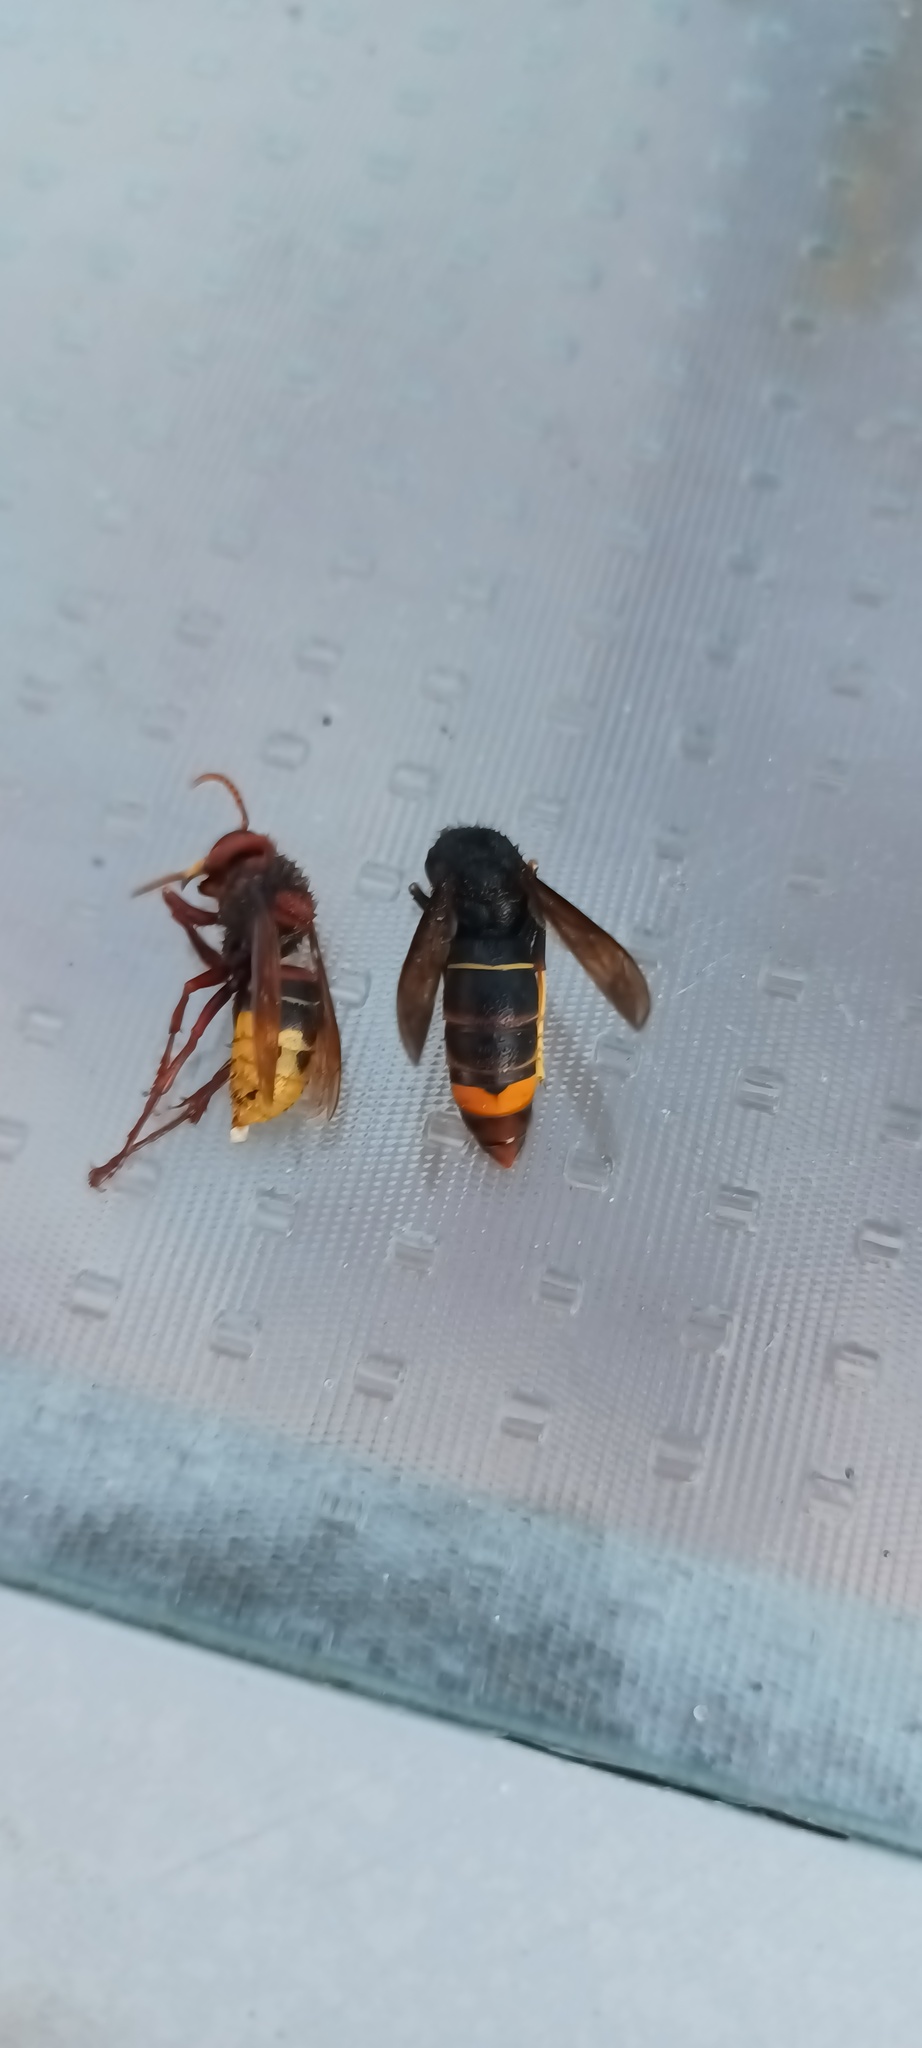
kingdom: Animalia
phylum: Arthropoda
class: Insecta
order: Hymenoptera
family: Vespidae
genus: Vespa
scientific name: Vespa velutina
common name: Asian hornet
